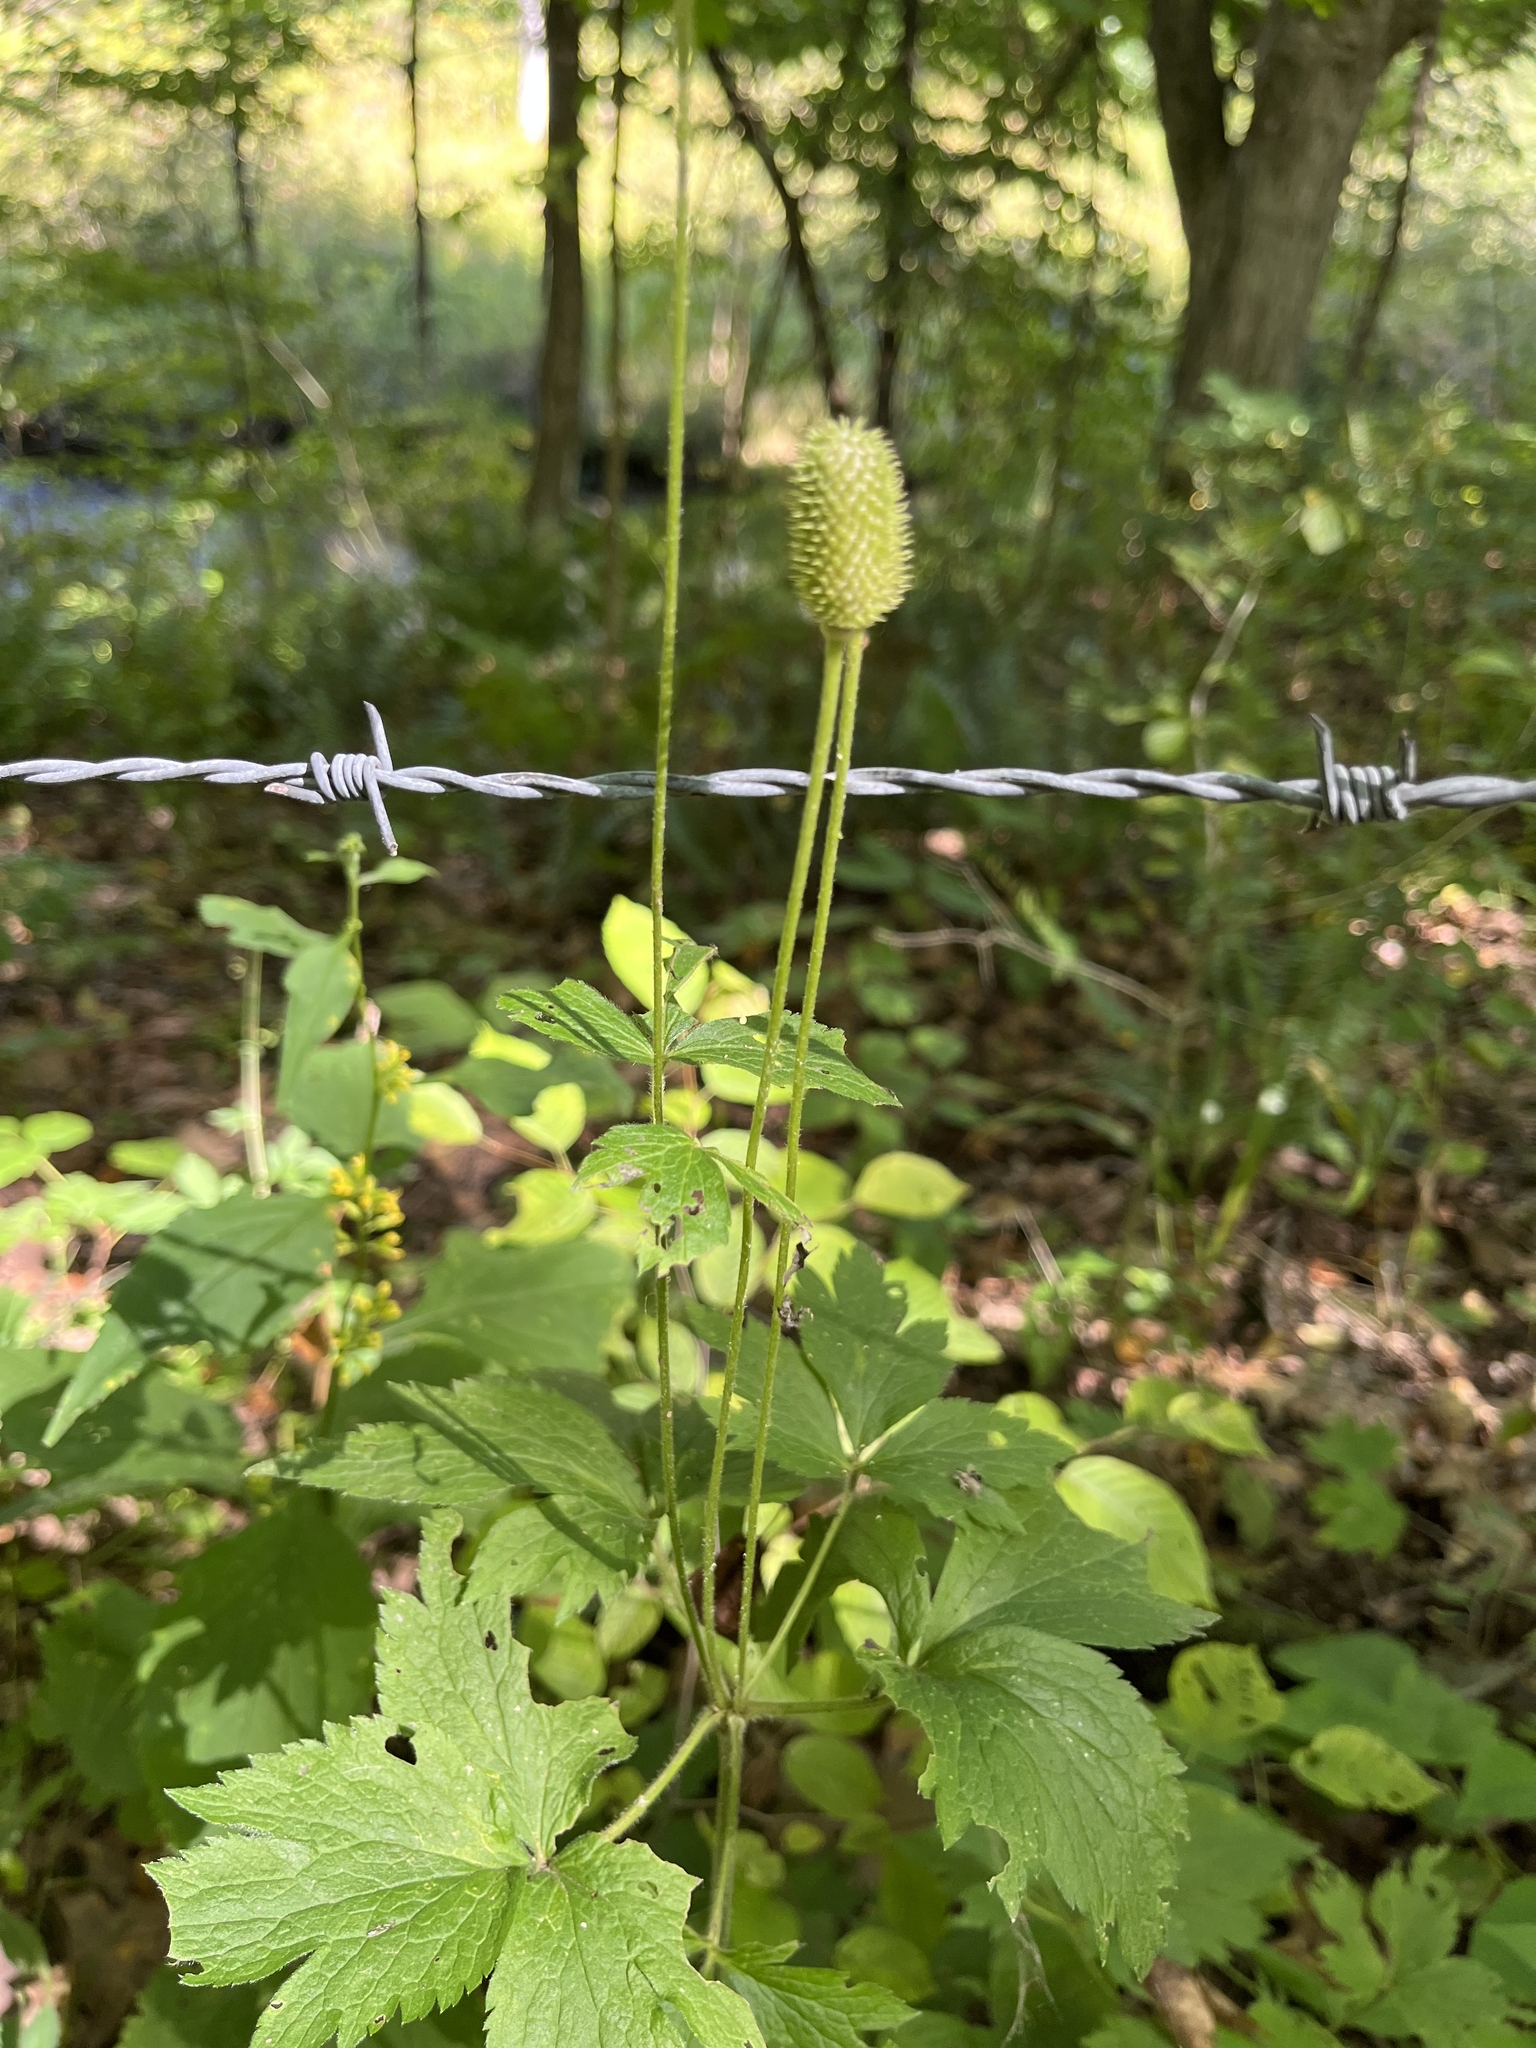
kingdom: Plantae
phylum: Tracheophyta
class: Magnoliopsida
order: Ranunculales
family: Ranunculaceae
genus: Anemone
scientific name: Anemone virginiana
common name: Tall anemone
